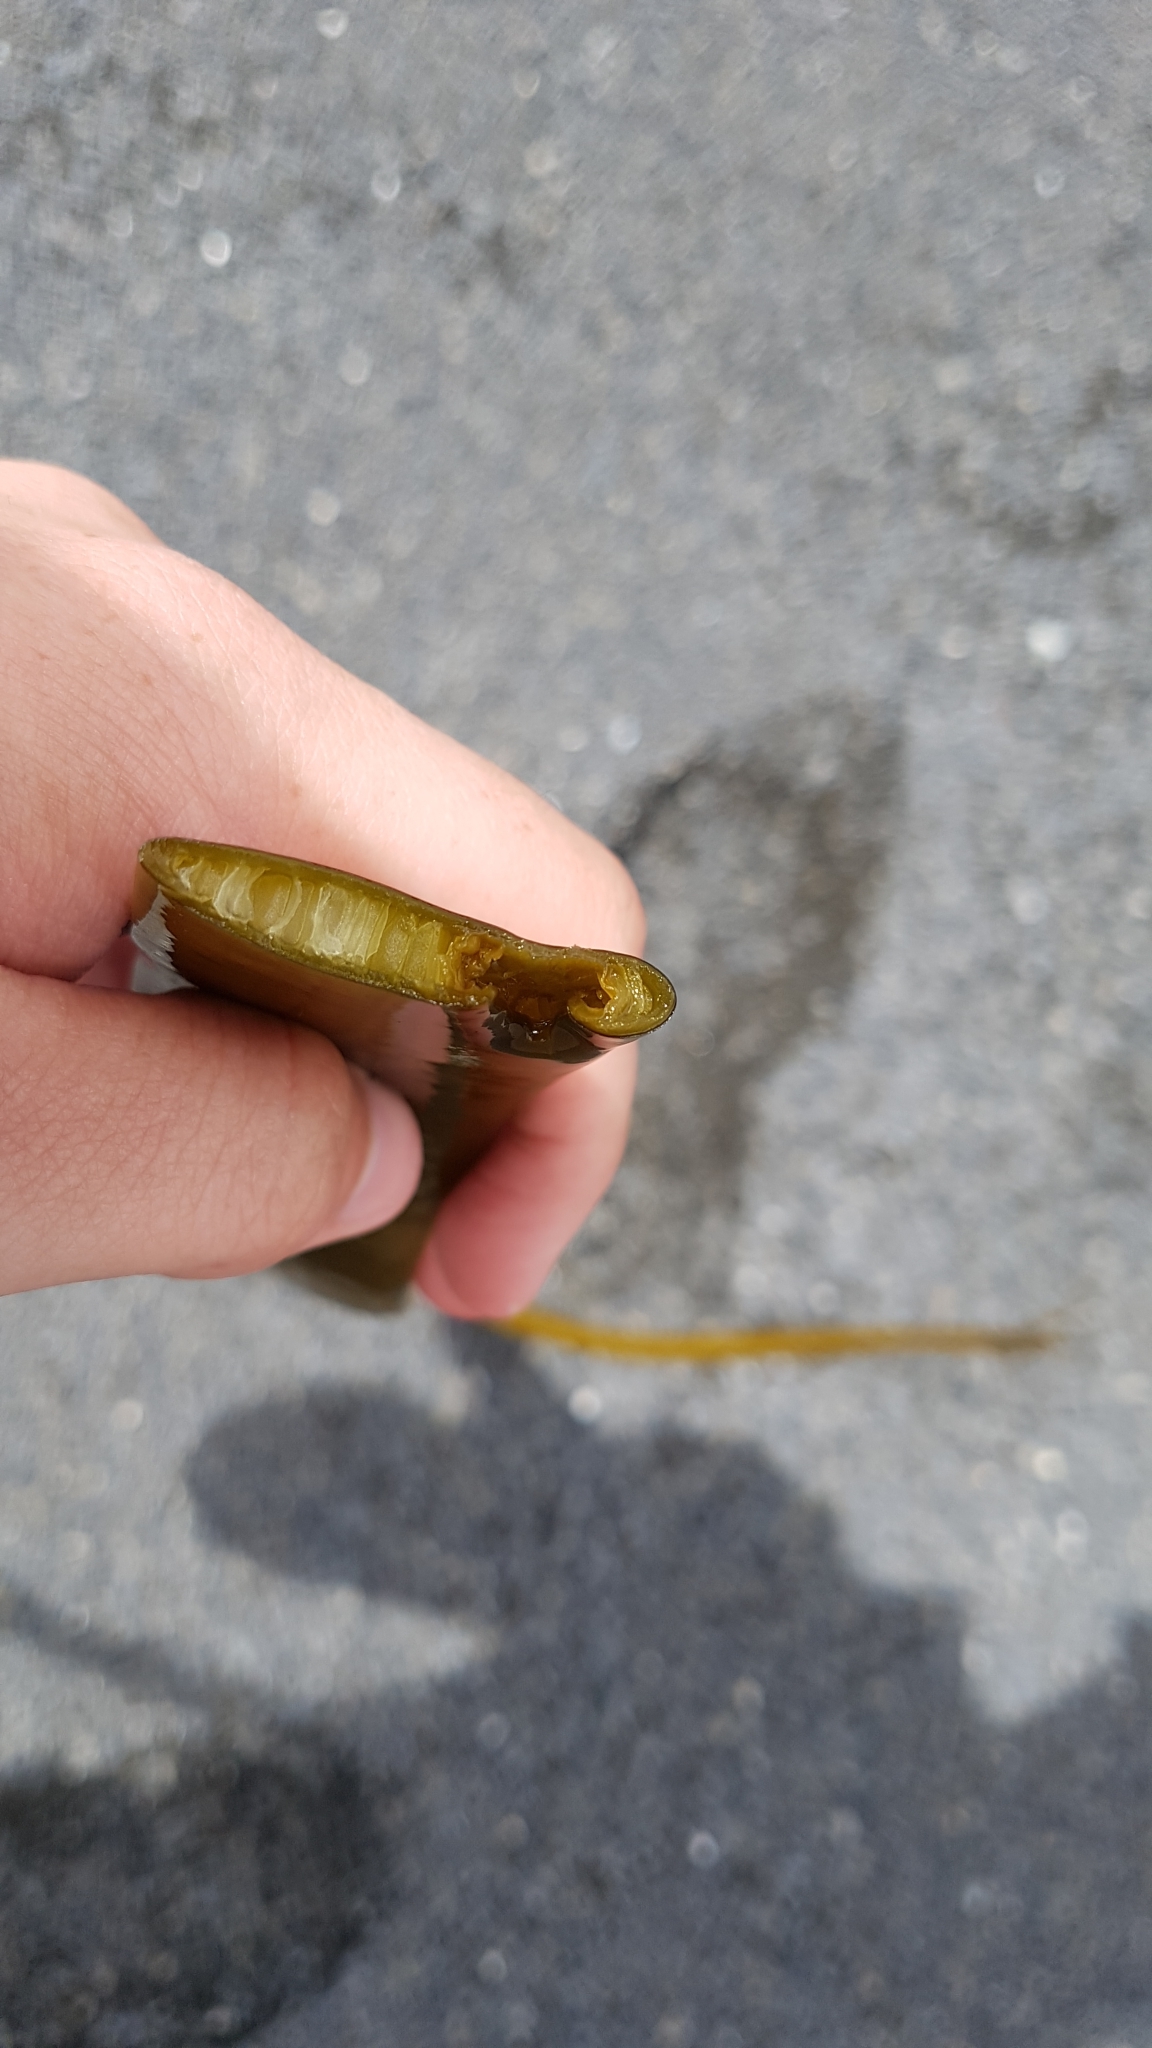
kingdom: Chromista
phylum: Ochrophyta
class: Phaeophyceae
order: Fucales
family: Durvillaeaceae
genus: Durvillaea
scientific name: Durvillaea antarctica
